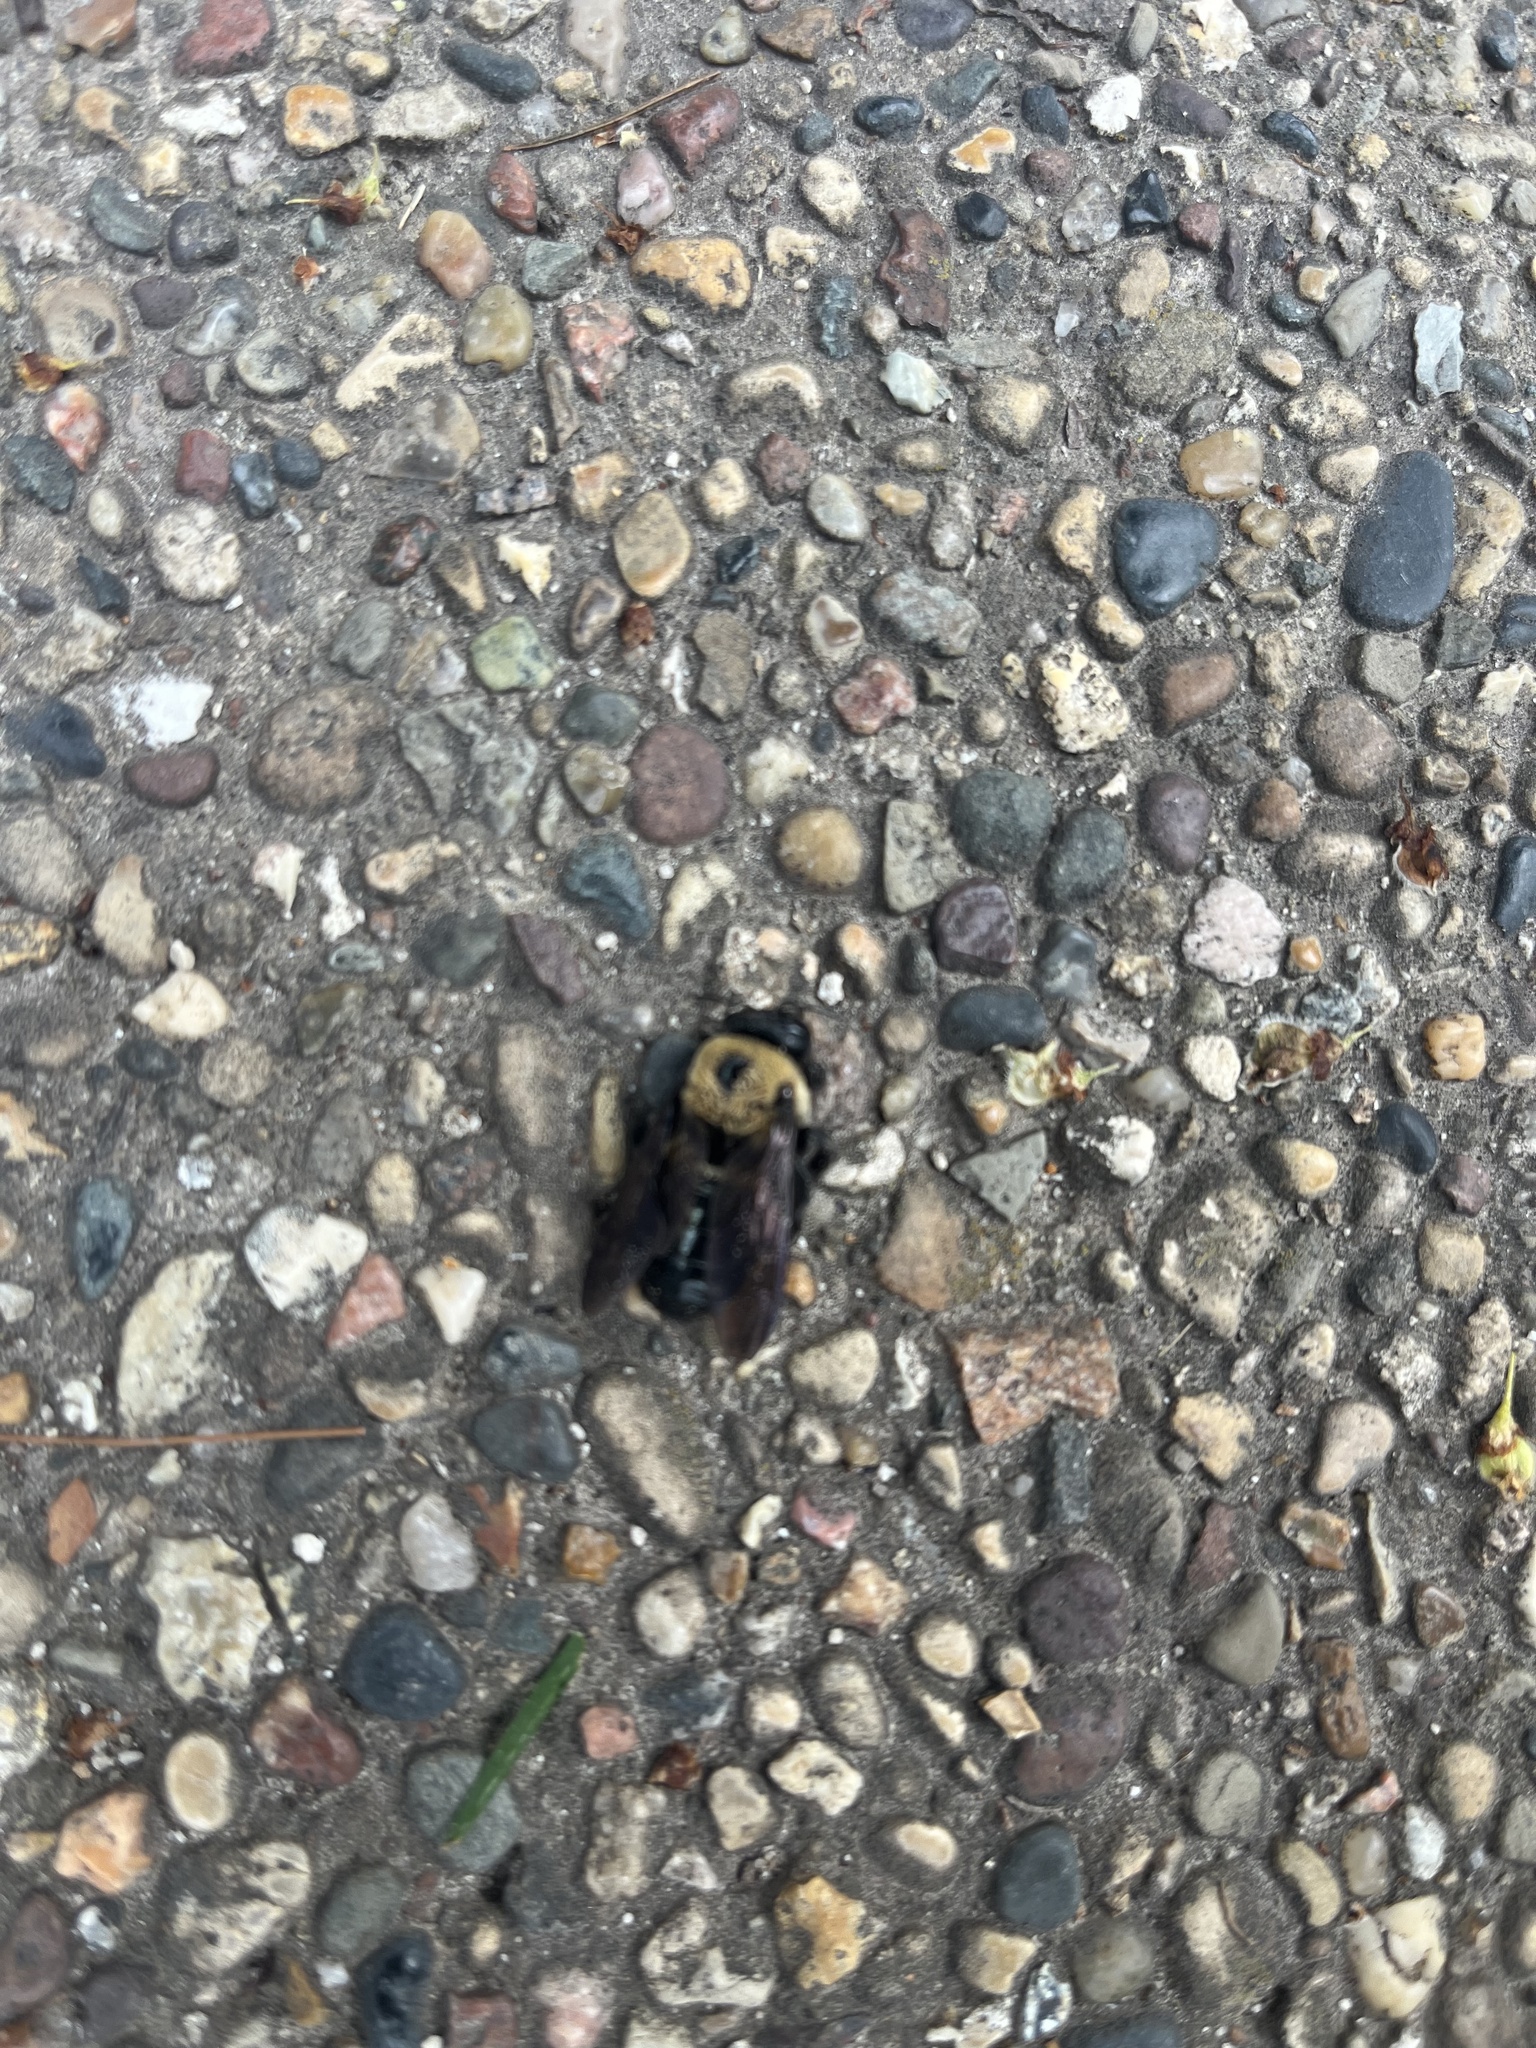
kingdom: Animalia
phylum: Arthropoda
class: Insecta
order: Hymenoptera
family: Apidae
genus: Xylocopa
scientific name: Xylocopa virginica
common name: Carpenter bee
